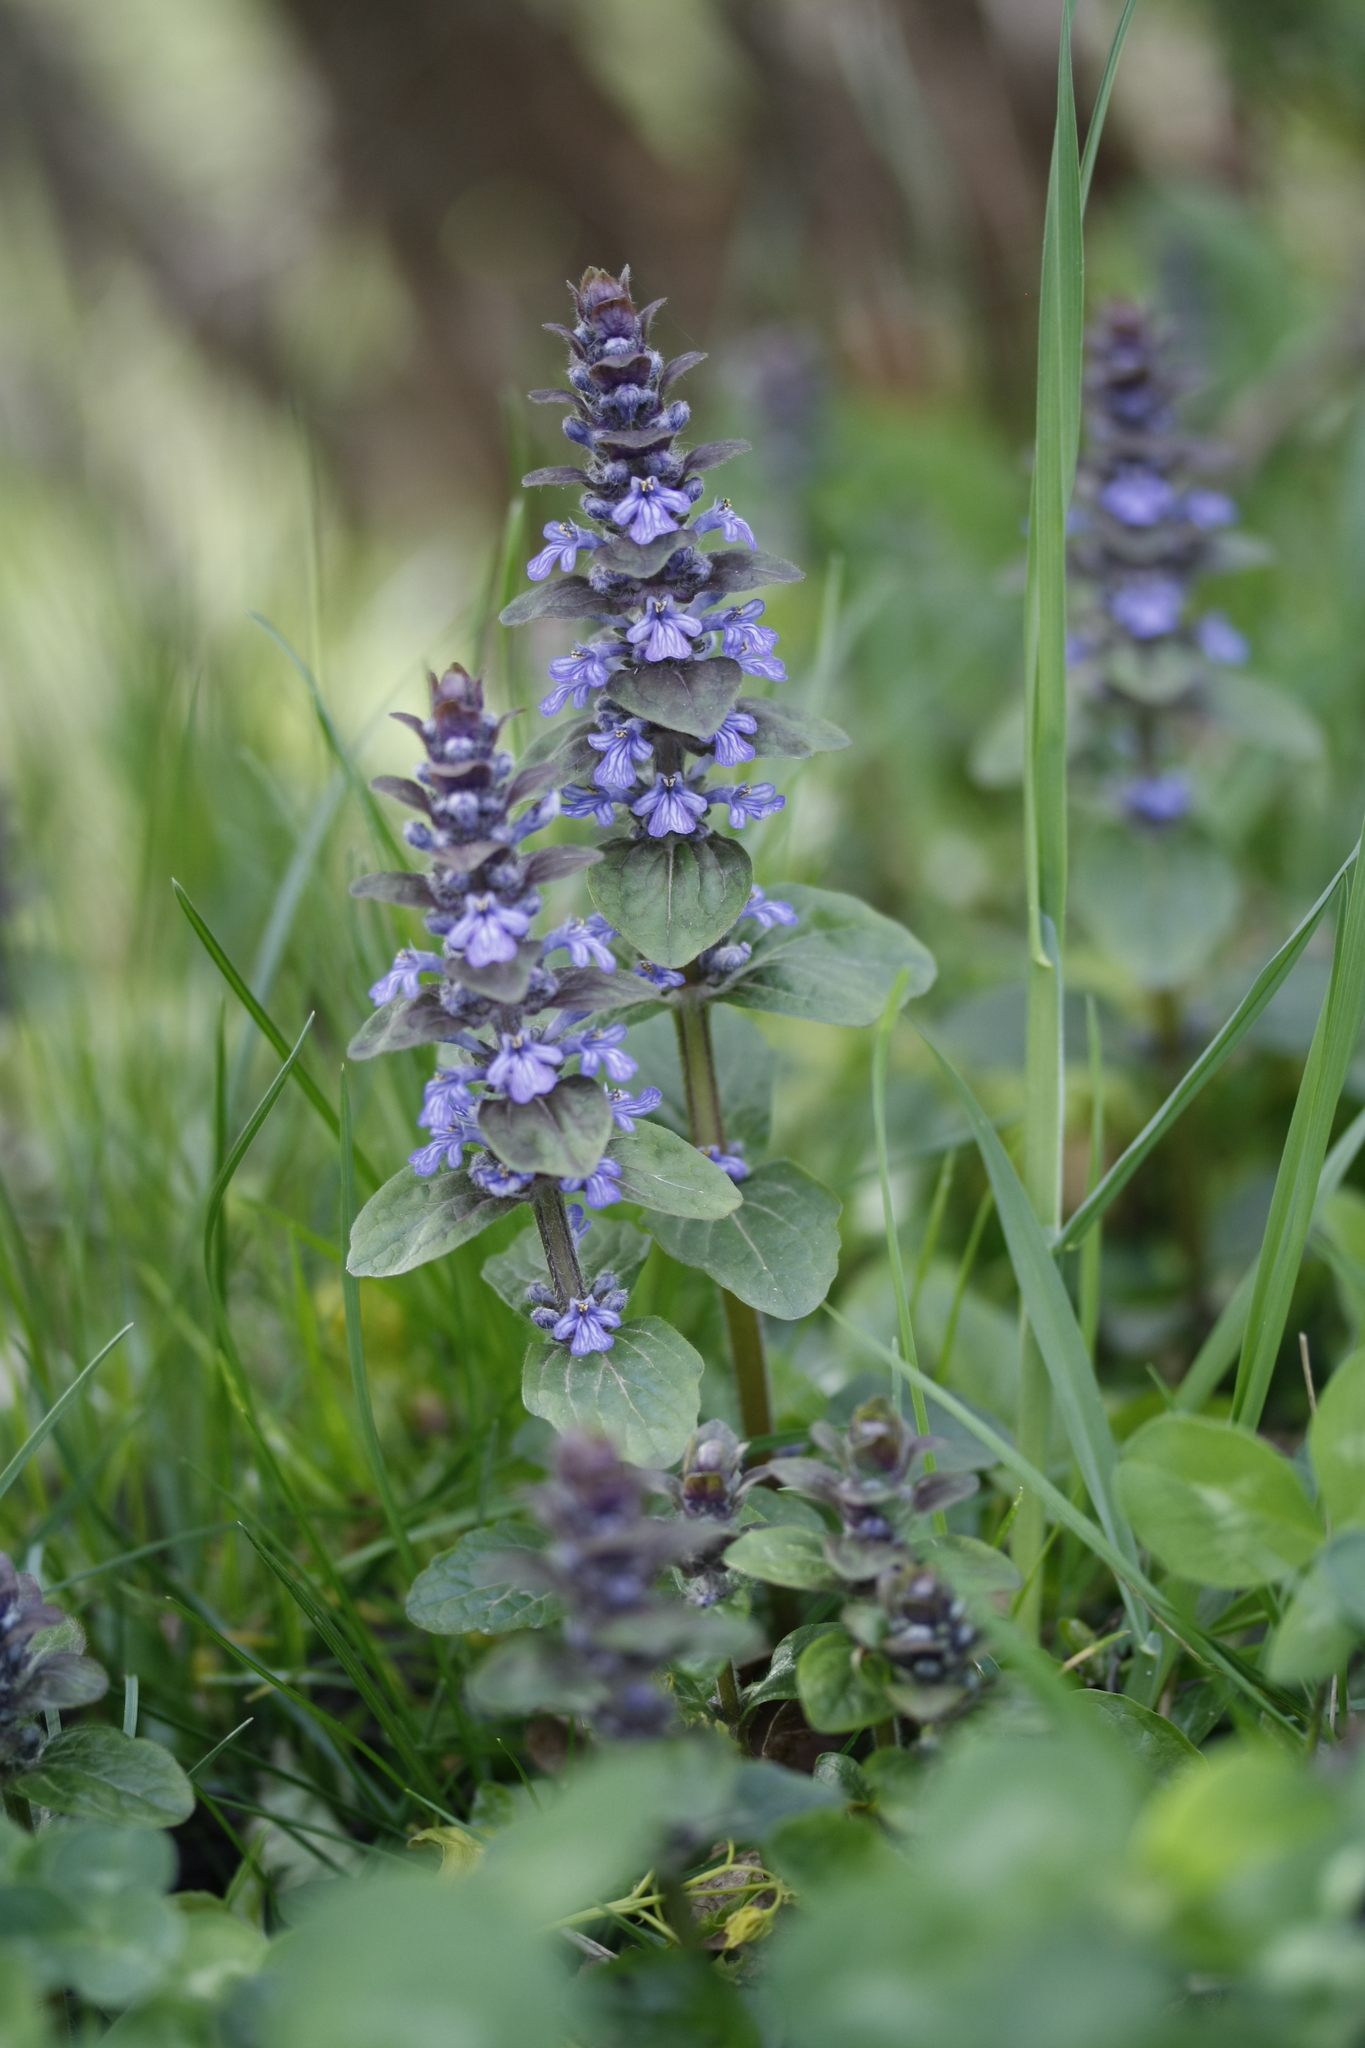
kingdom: Plantae
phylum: Tracheophyta
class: Magnoliopsida
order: Lamiales
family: Lamiaceae
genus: Ajuga
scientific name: Ajuga reptans
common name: Bugle
